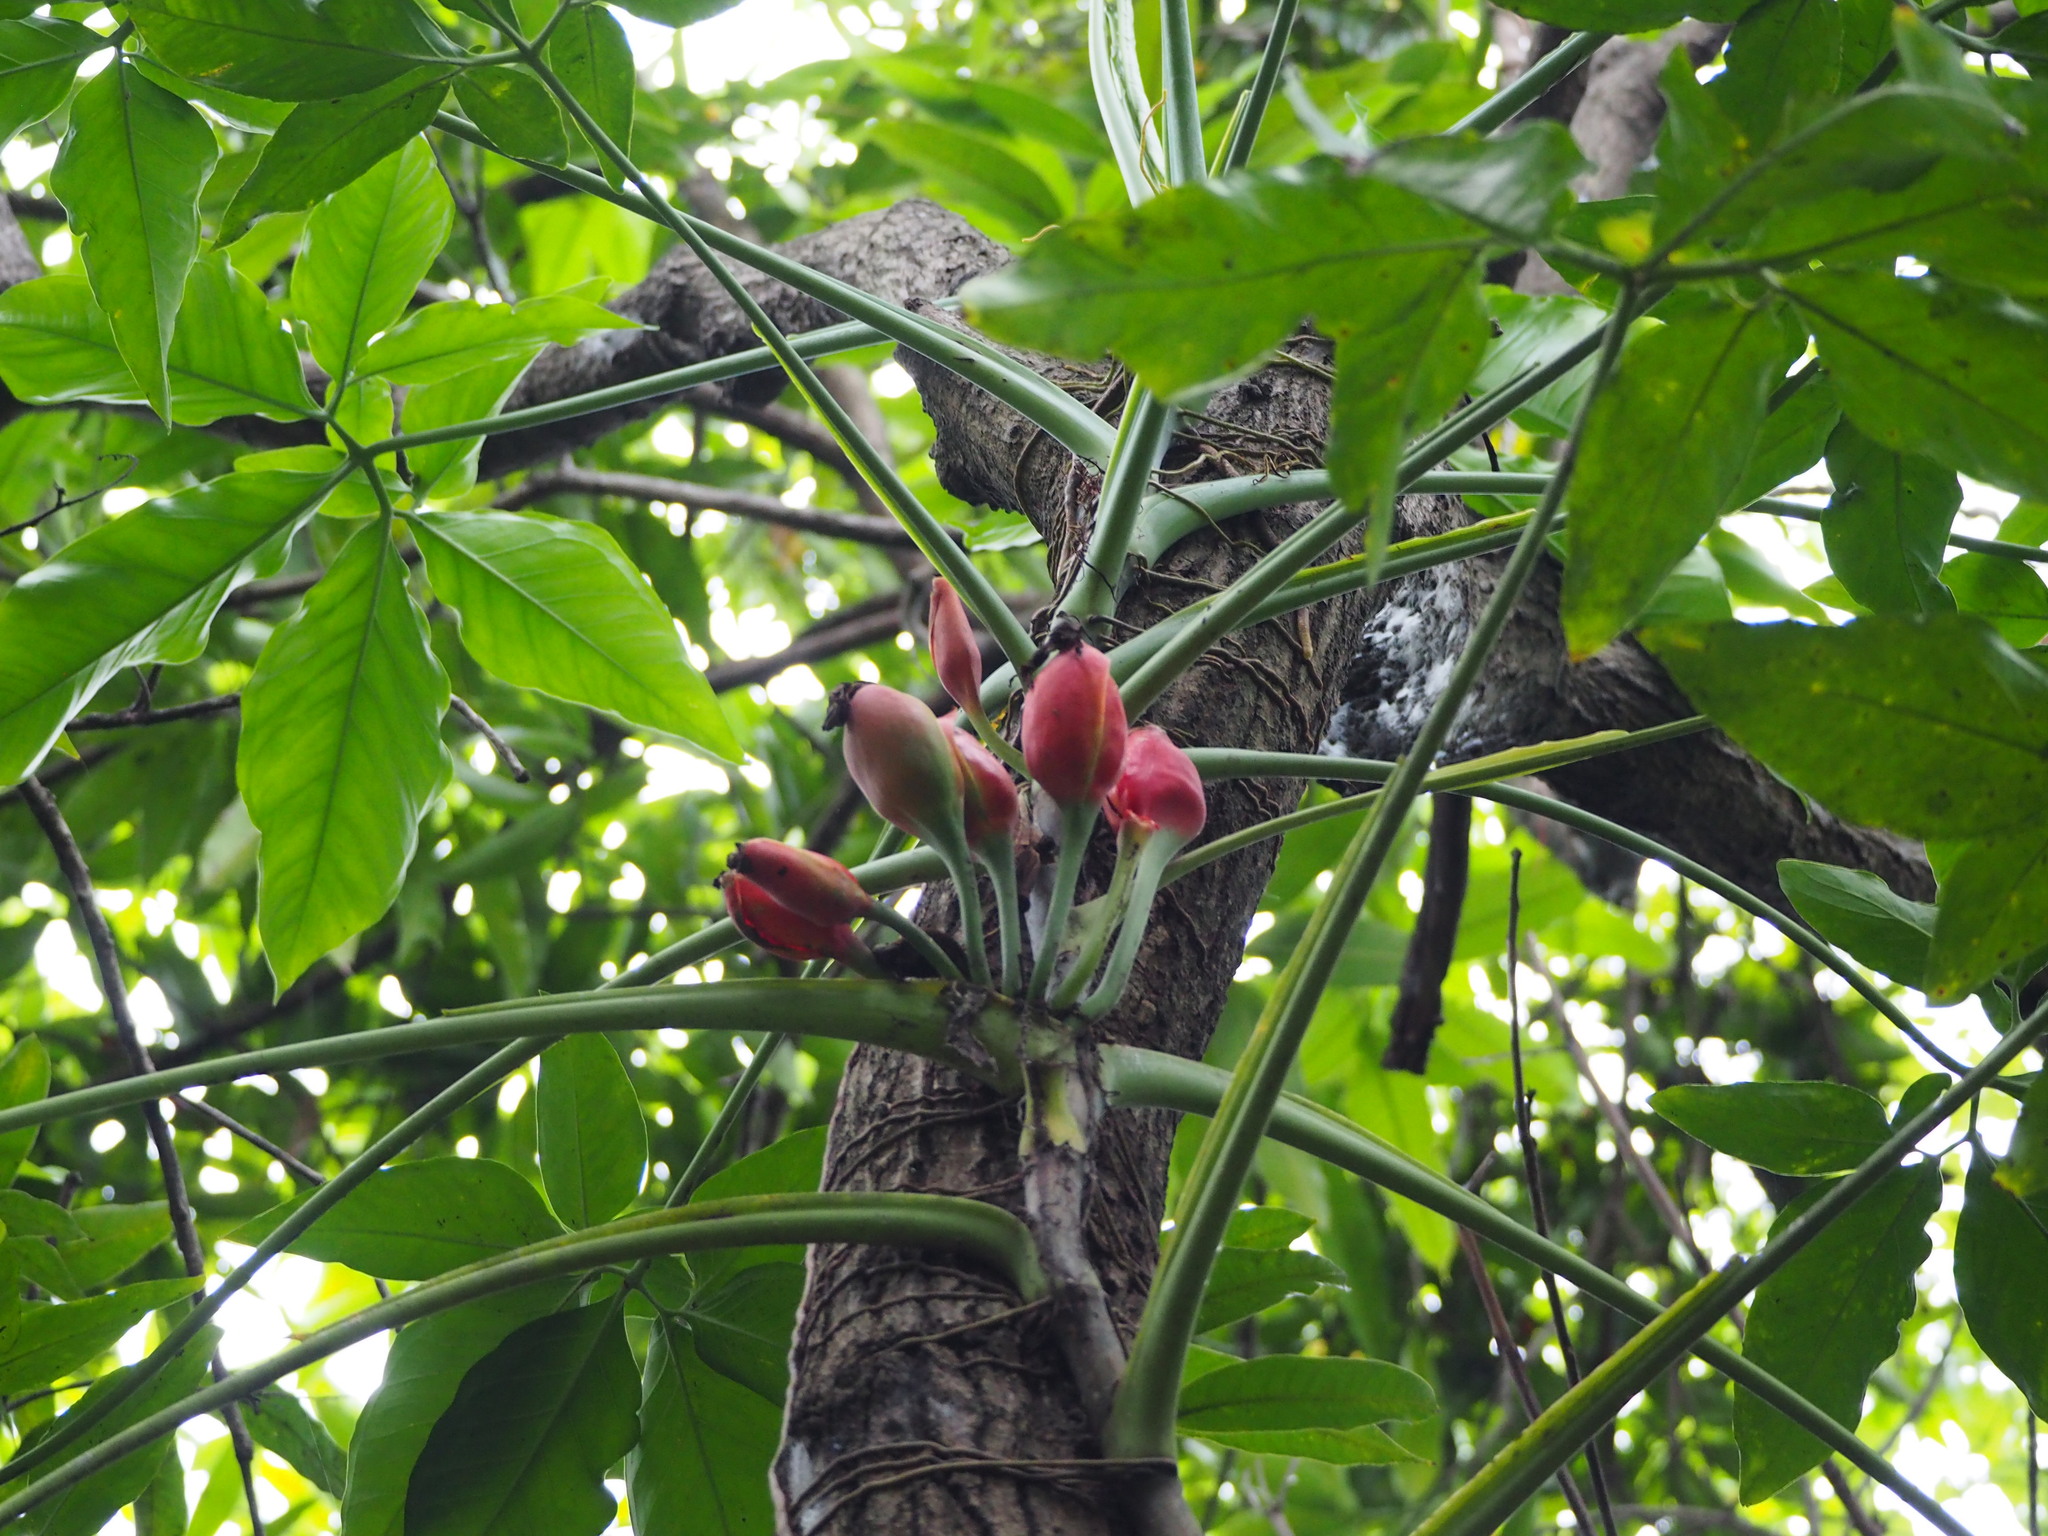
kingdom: Plantae
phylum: Tracheophyta
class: Liliopsida
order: Alismatales
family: Araceae
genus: Syngonium
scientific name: Syngonium angustatum
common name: Fivefingers
